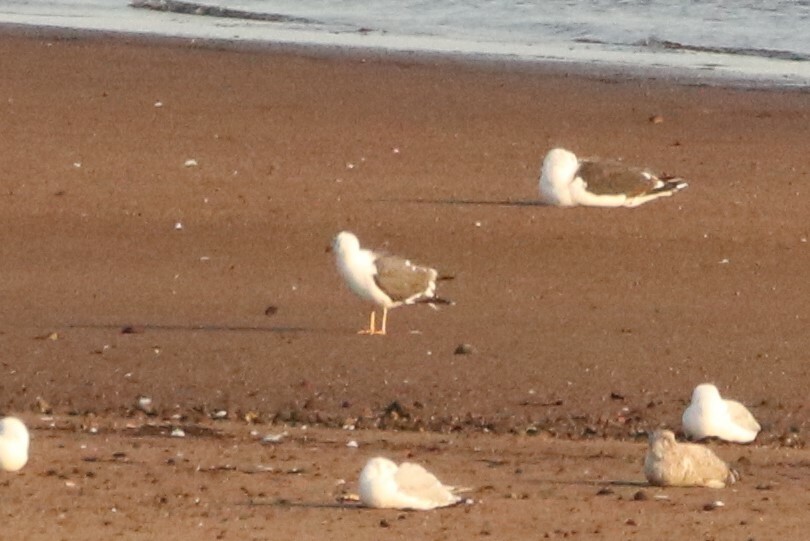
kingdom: Animalia
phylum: Chordata
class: Aves
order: Charadriiformes
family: Laridae
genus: Larus
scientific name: Larus fuscus
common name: Lesser black-backed gull
